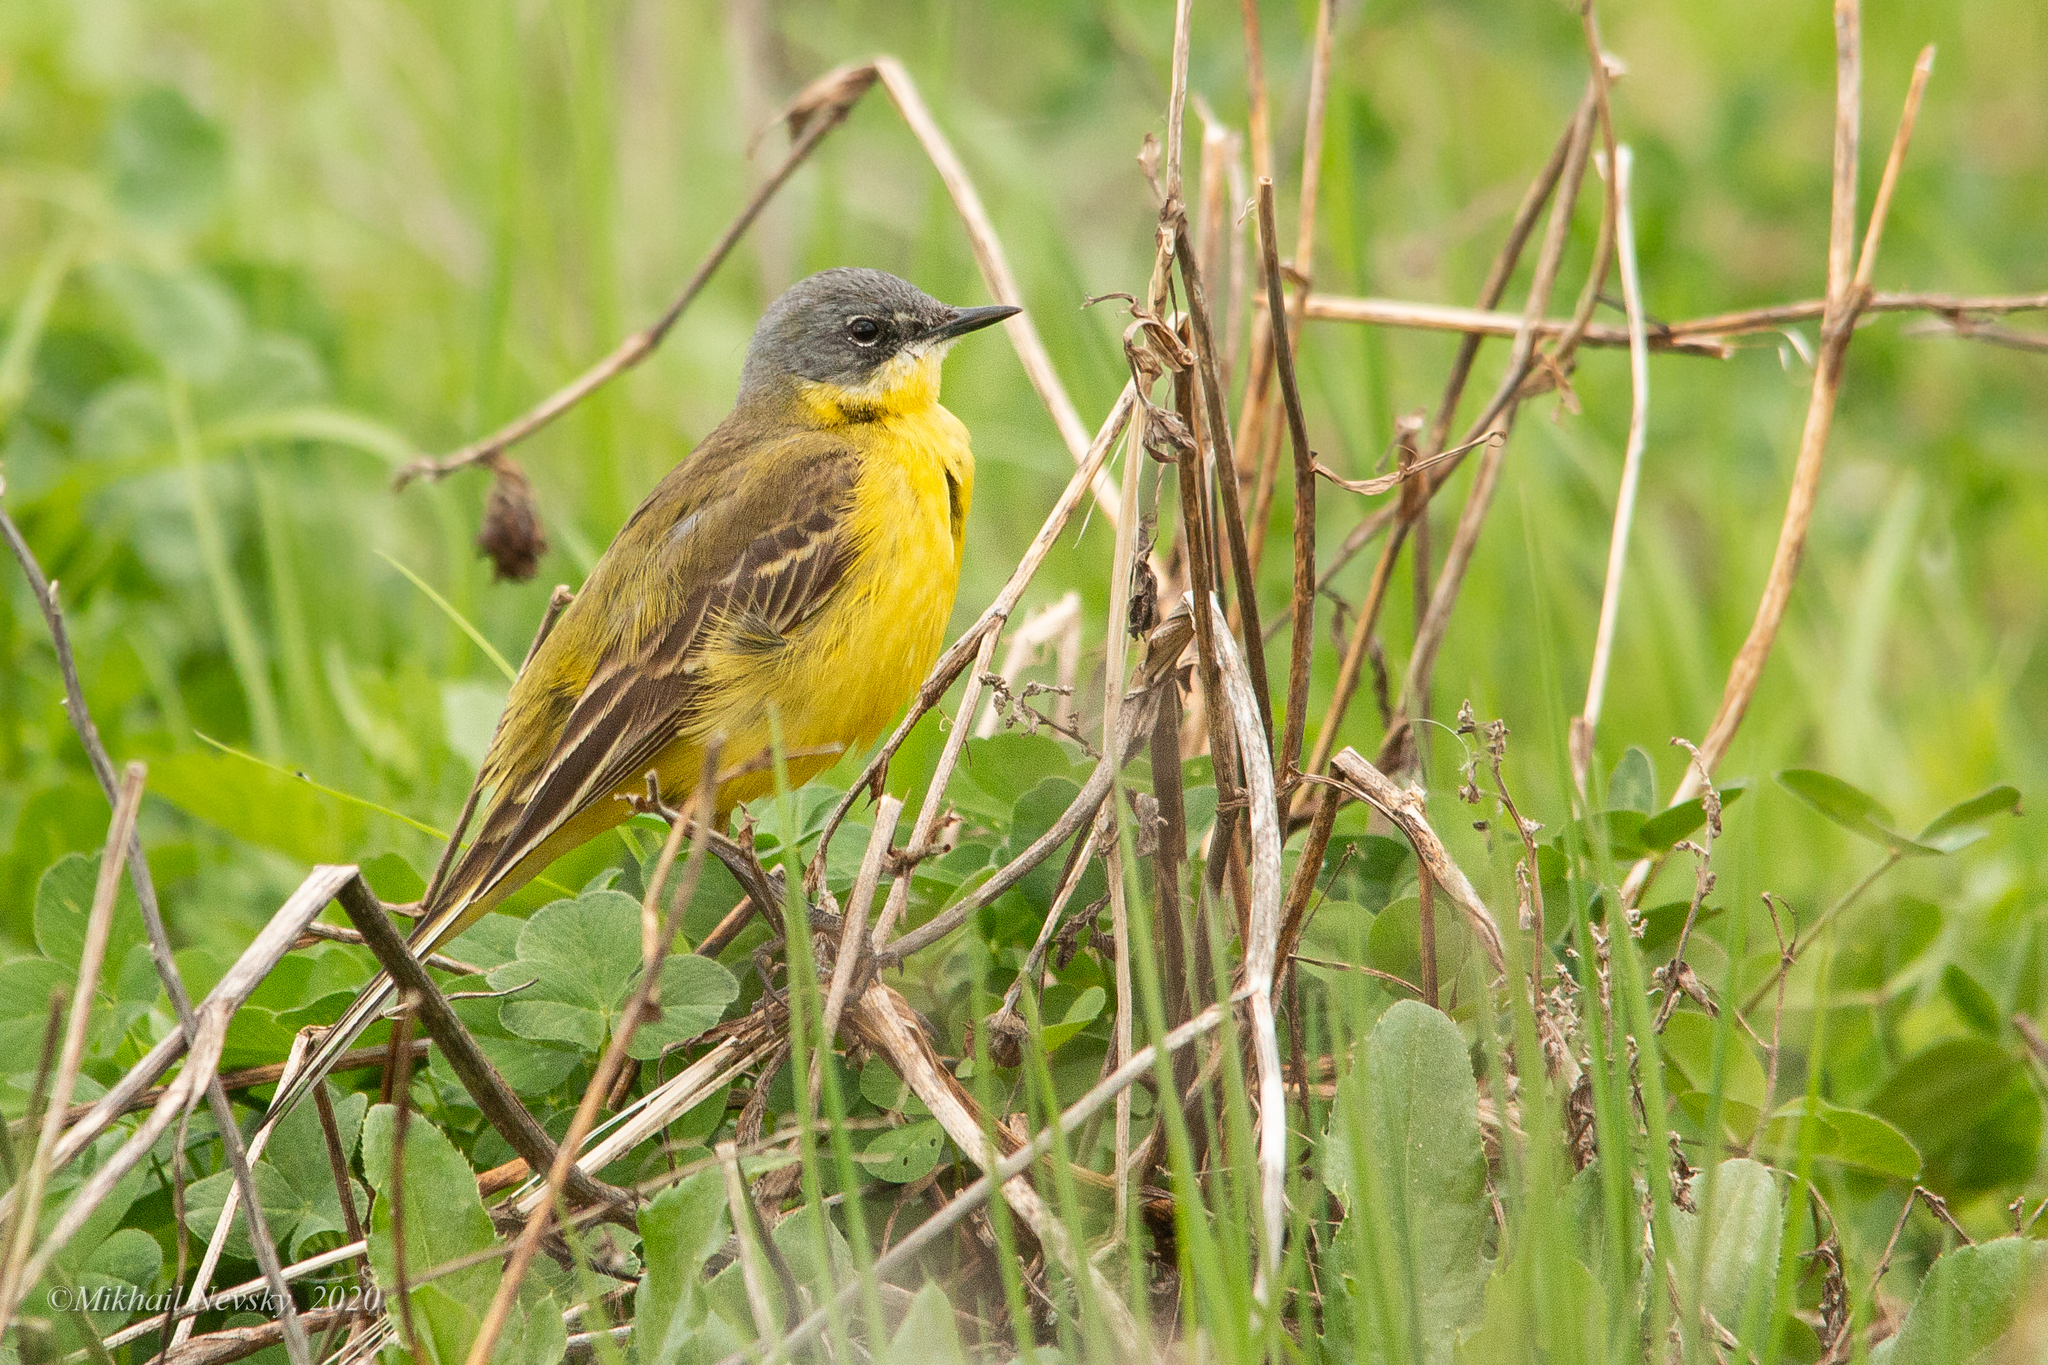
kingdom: Animalia
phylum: Chordata
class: Aves
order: Passeriformes
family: Motacillidae
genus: Motacilla
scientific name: Motacilla flava
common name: Western yellow wagtail
